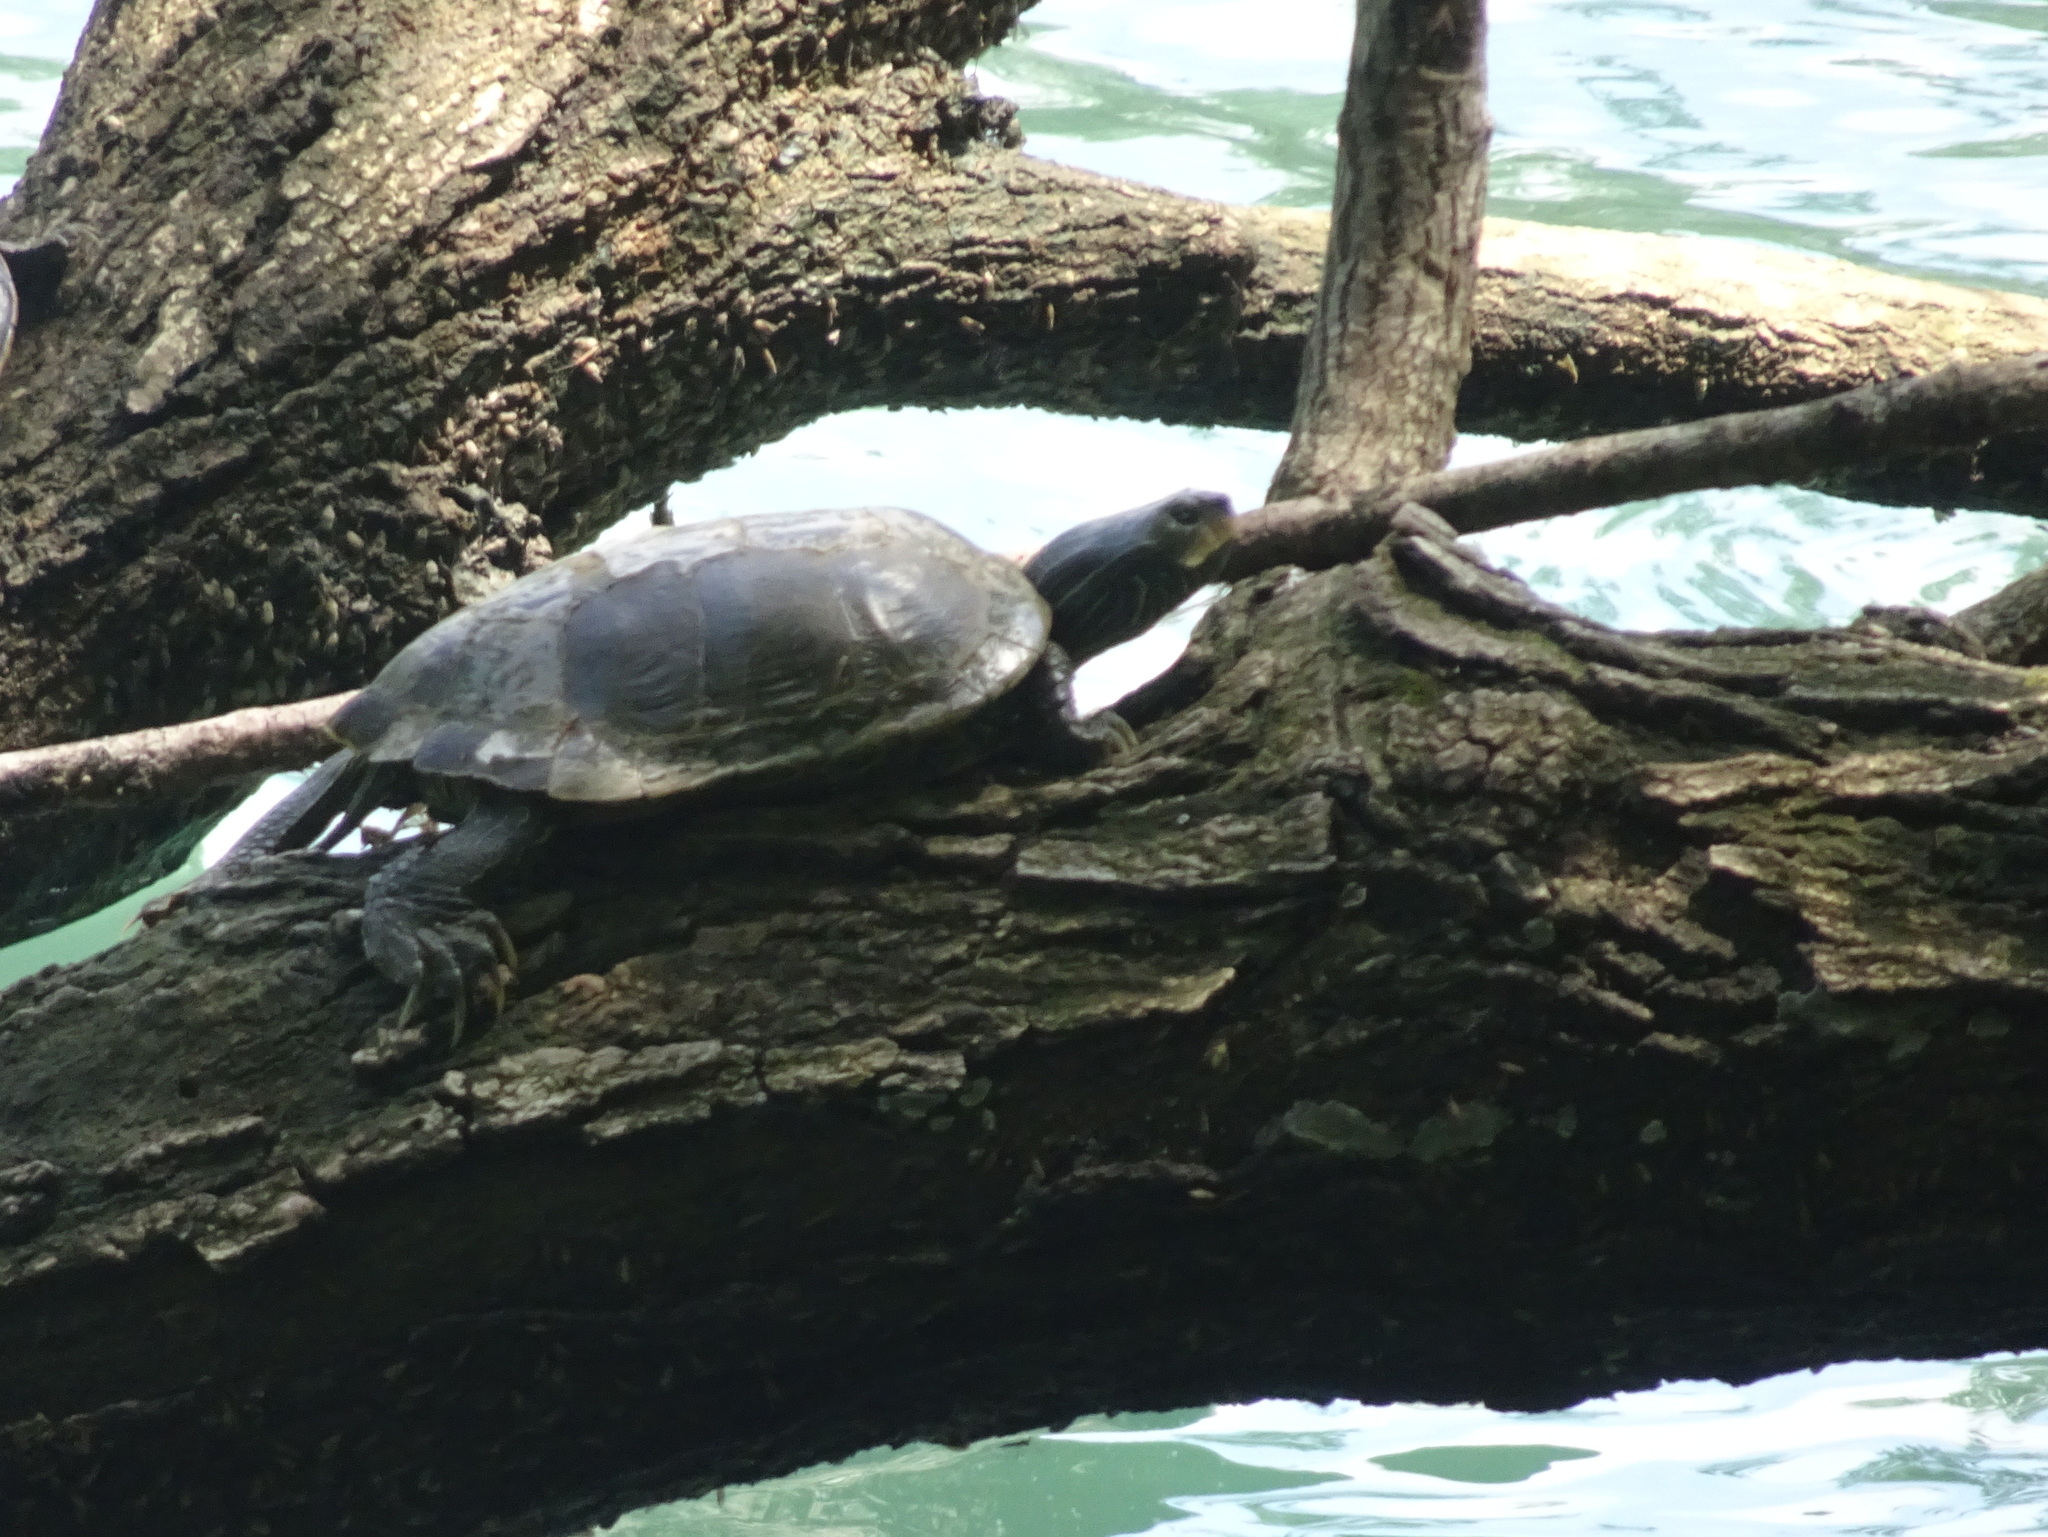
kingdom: Animalia
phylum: Chordata
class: Testudines
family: Emydidae
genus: Graptemys
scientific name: Graptemys geographica
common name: Common map turtle
